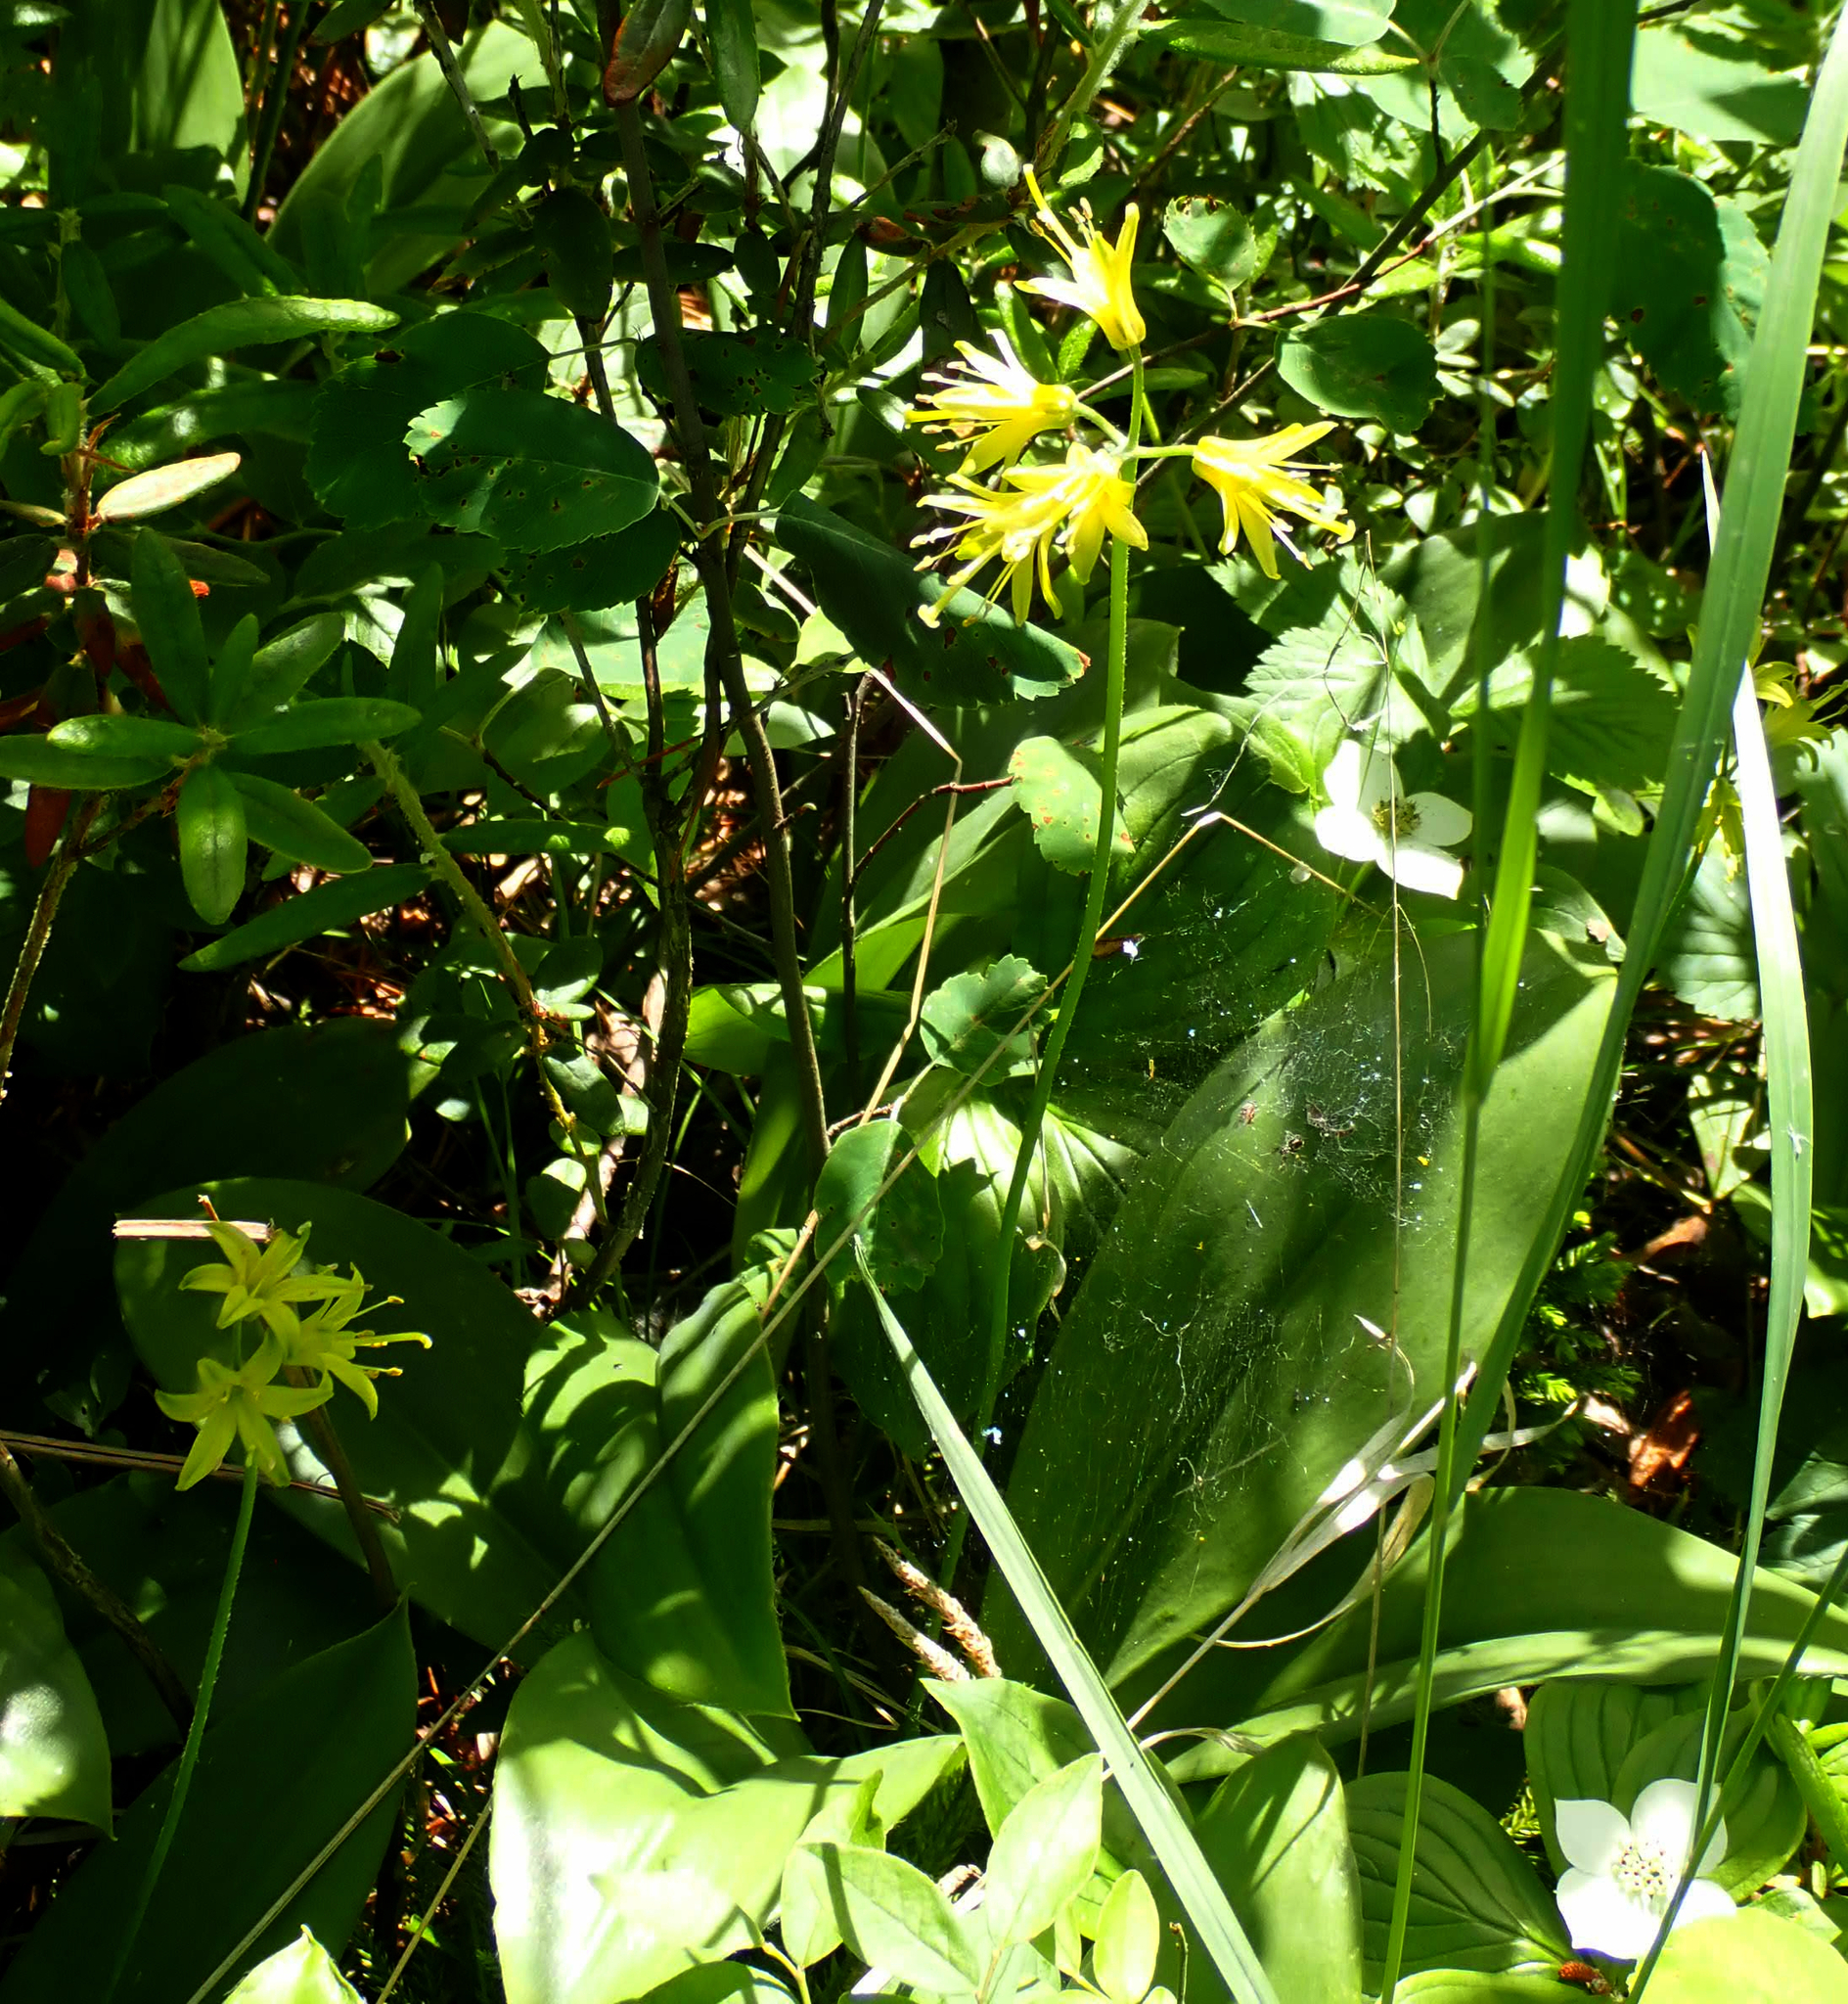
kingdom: Plantae
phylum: Tracheophyta
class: Liliopsida
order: Liliales
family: Liliaceae
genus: Clintonia
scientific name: Clintonia borealis
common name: Yellow clintonia
